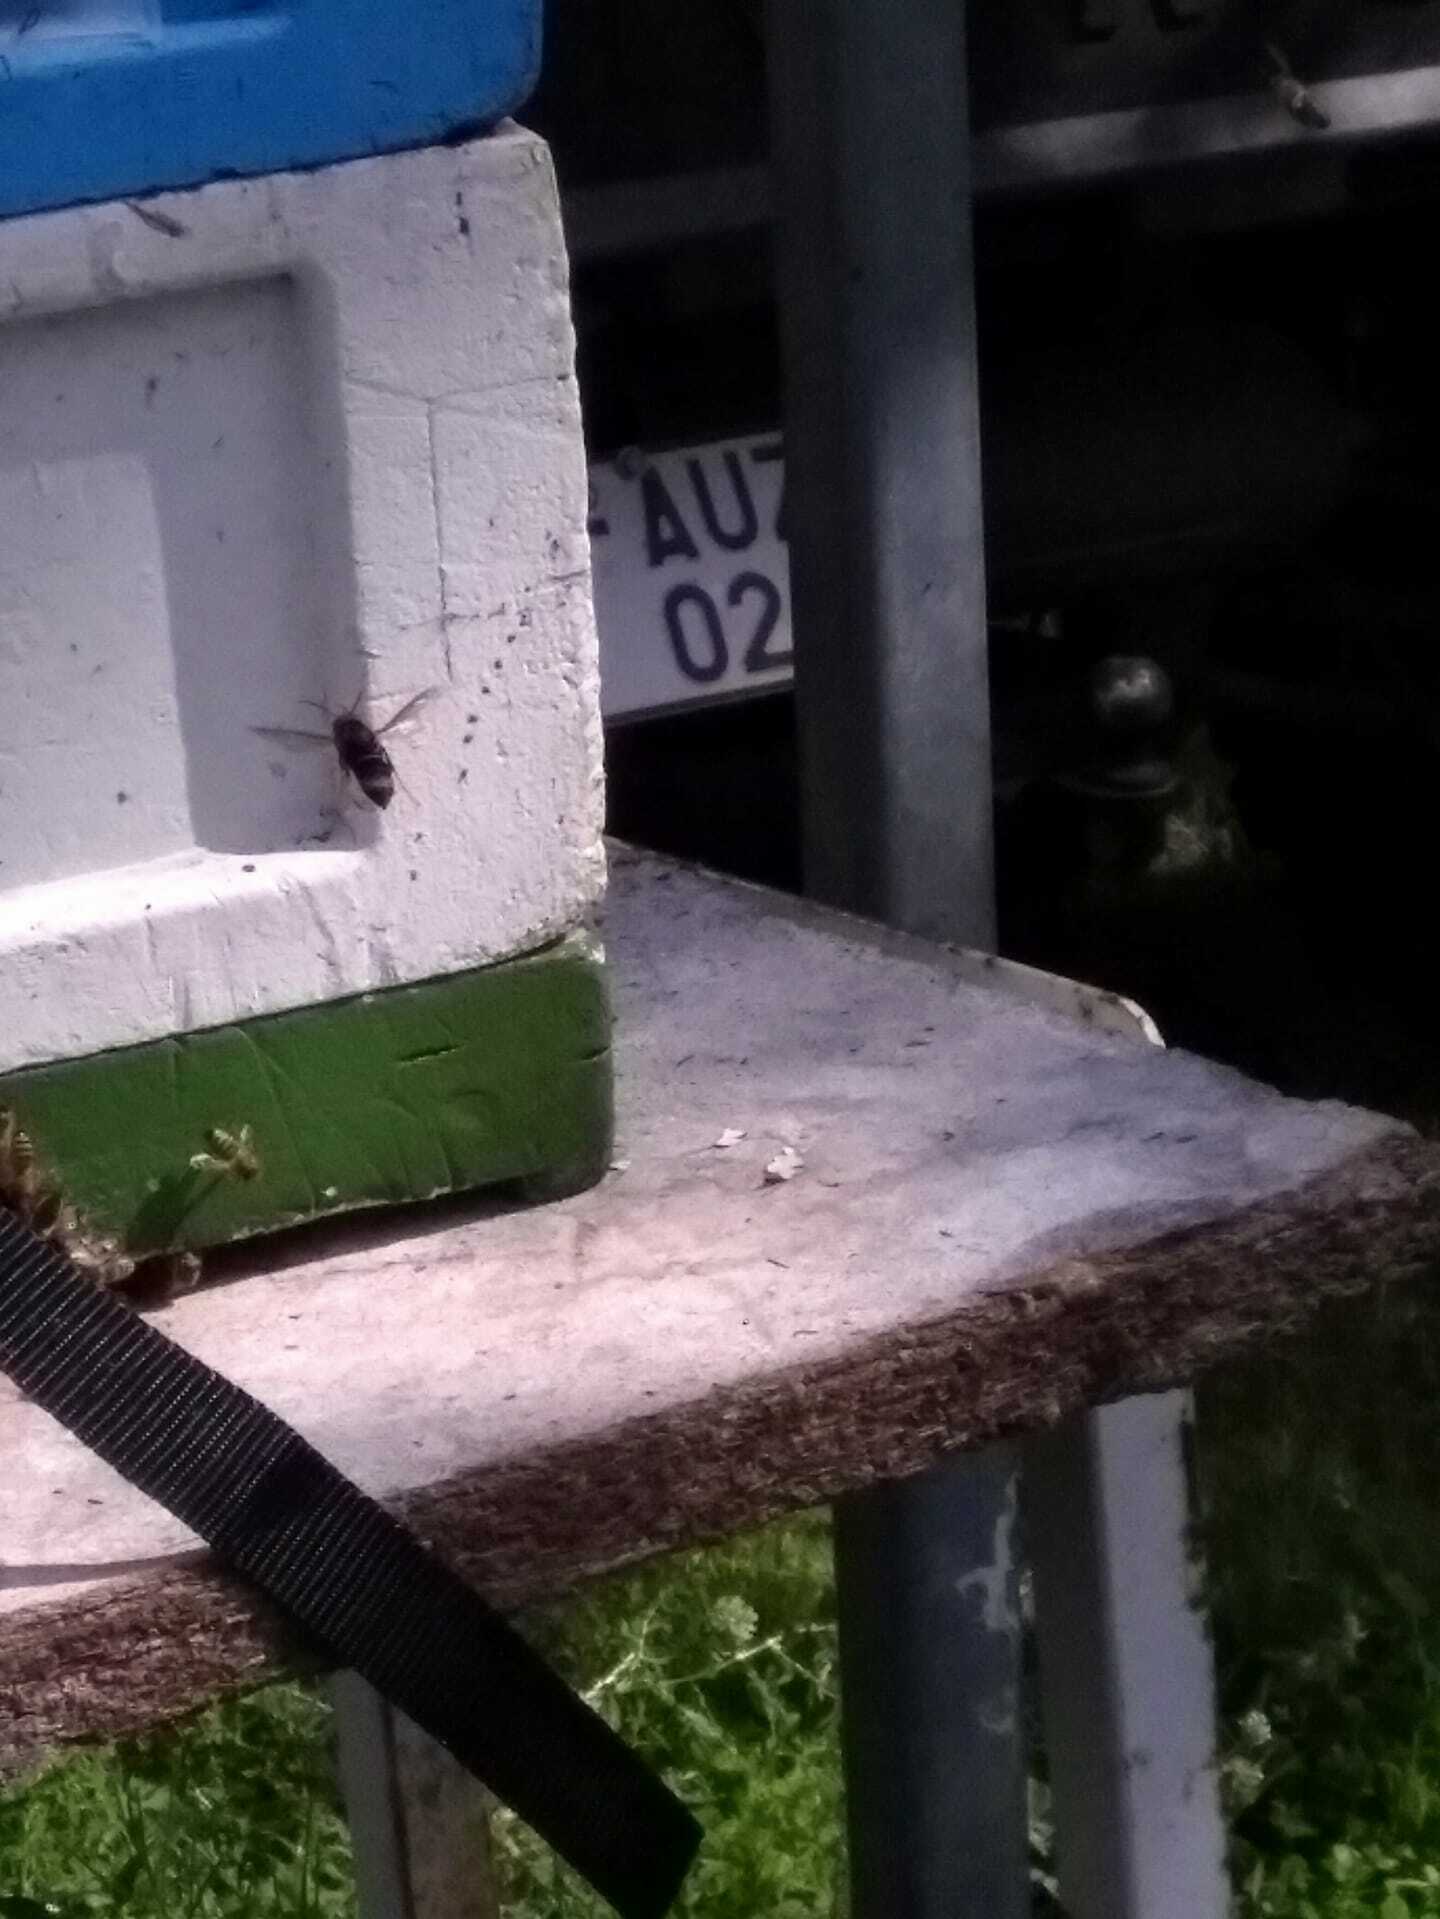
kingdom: Animalia
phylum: Arthropoda
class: Insecta
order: Hymenoptera
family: Vespidae
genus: Vespa
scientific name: Vespa velutina
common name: Asian hornet
